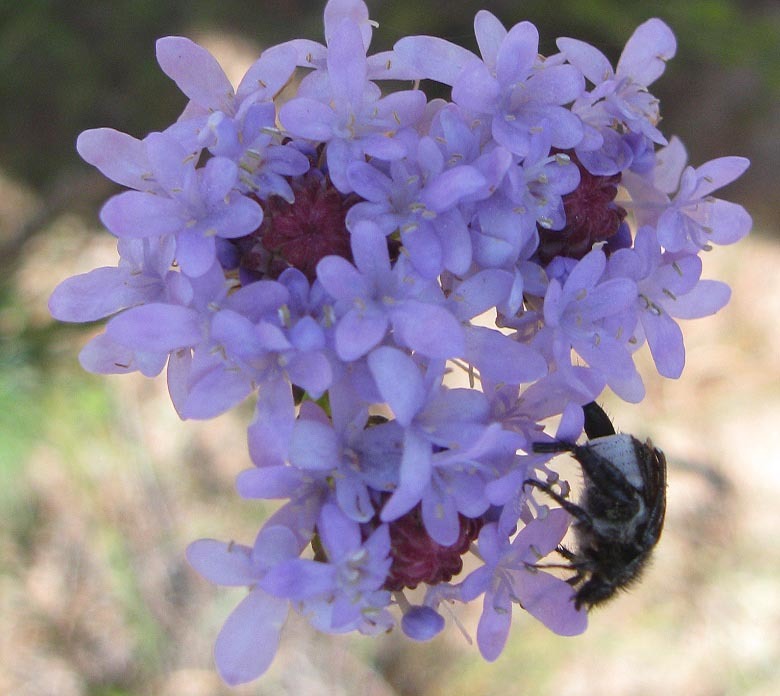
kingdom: Animalia
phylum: Arthropoda
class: Insecta
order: Coleoptera
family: Scarabaeidae
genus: Pachycnema
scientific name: Pachycnema crassipes
